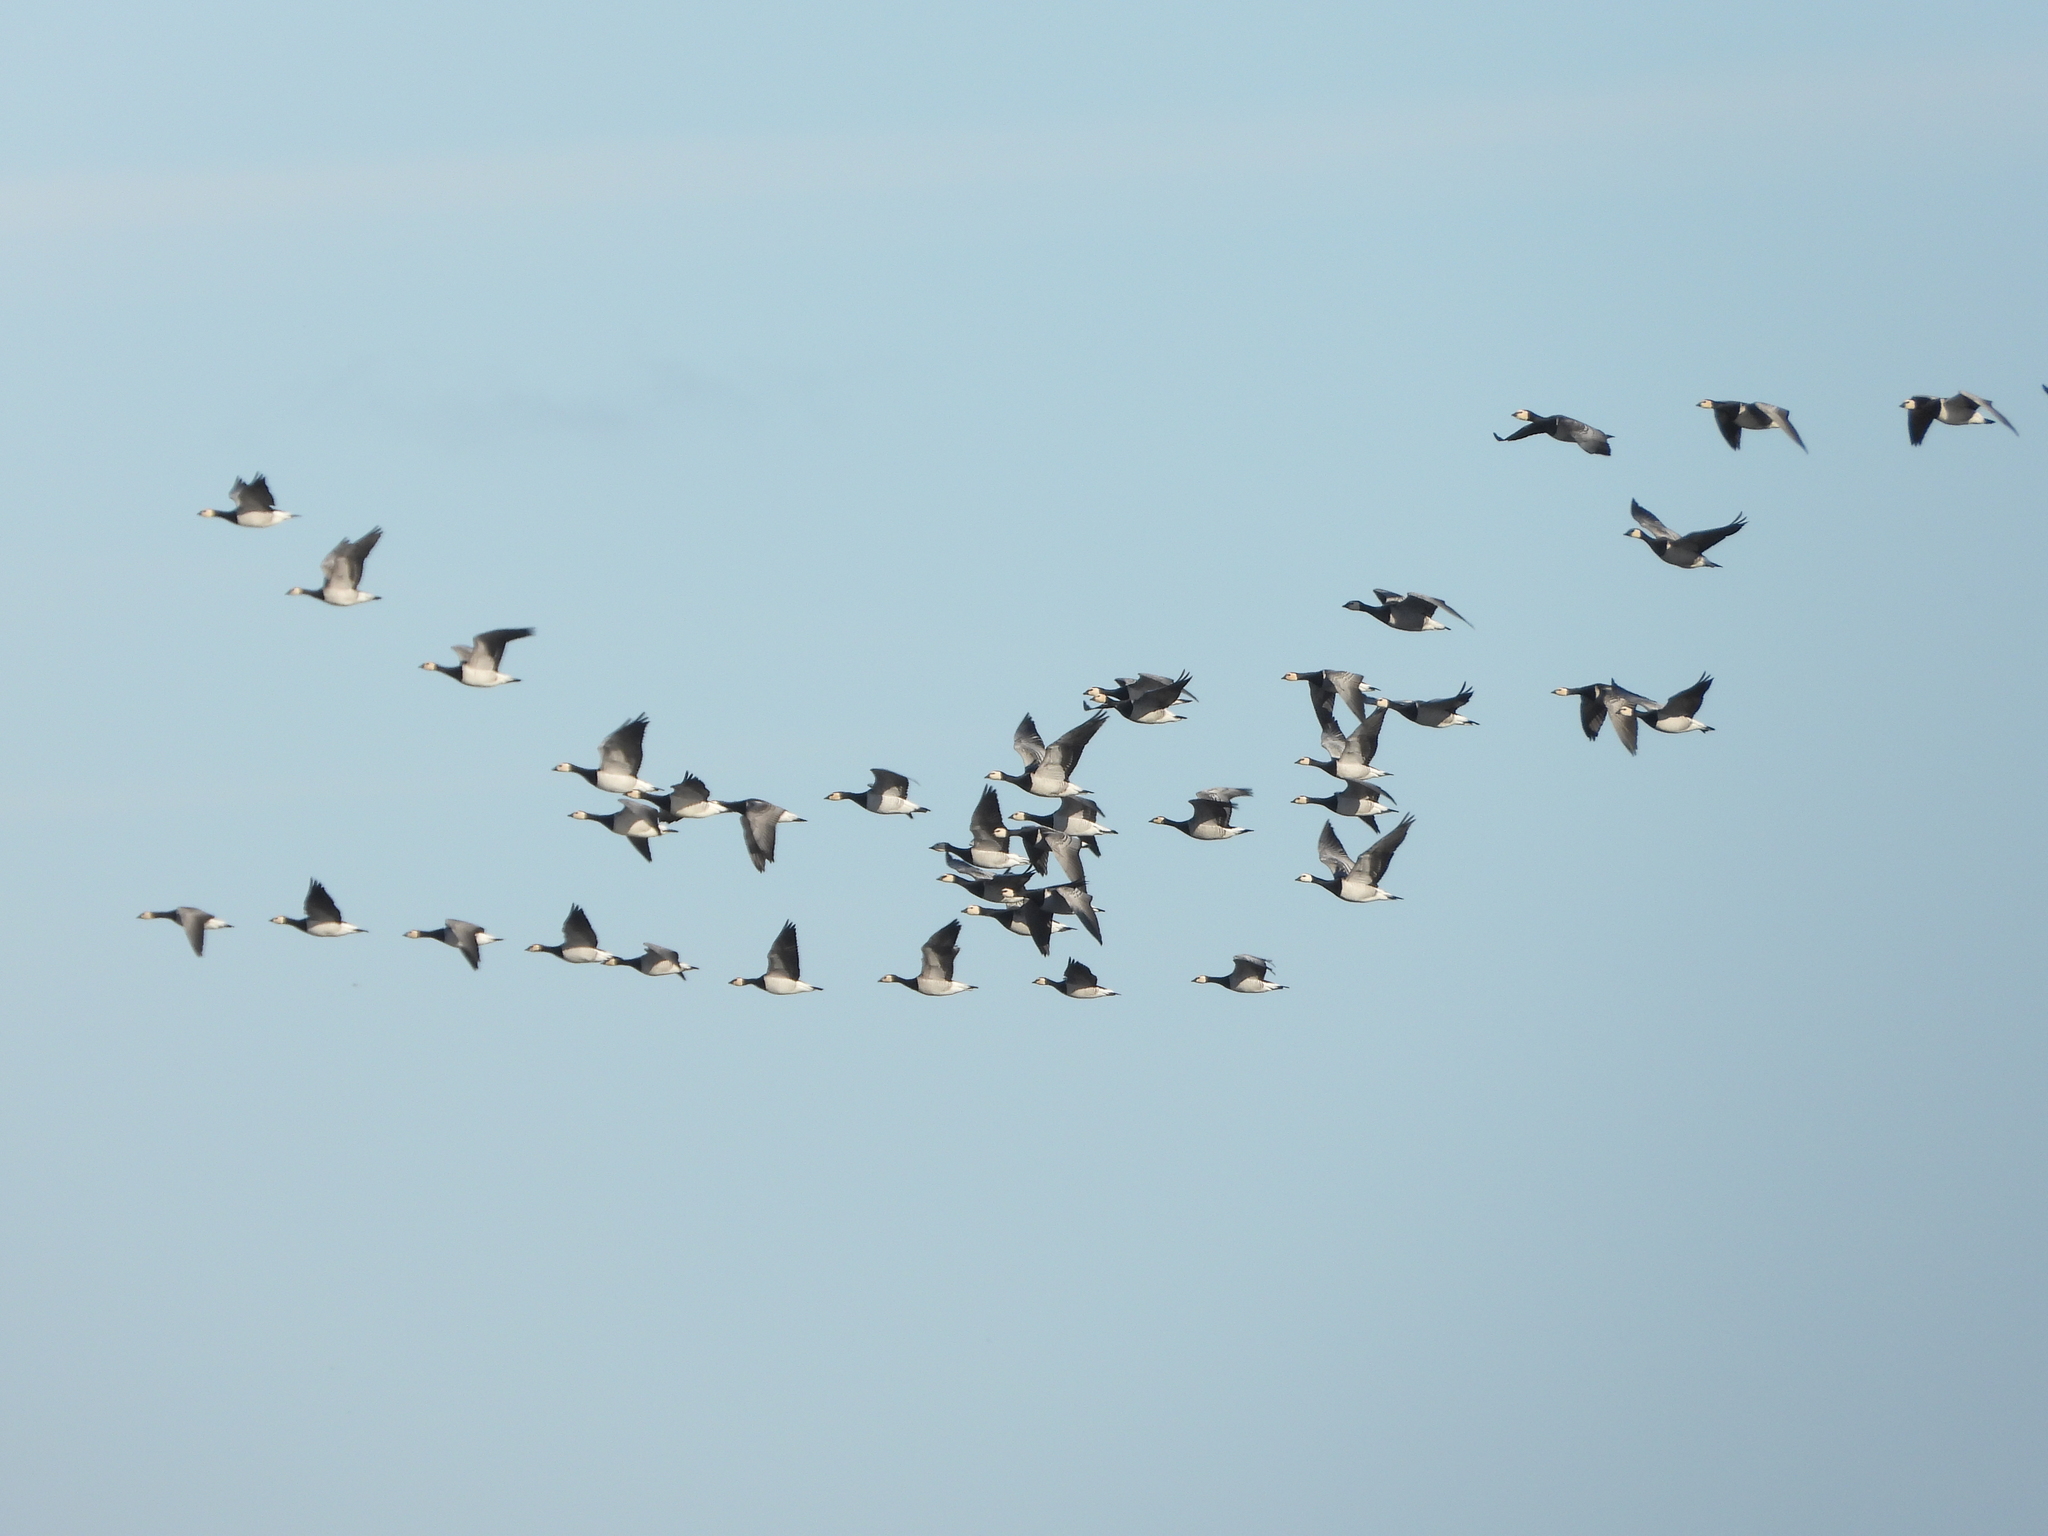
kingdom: Animalia
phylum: Chordata
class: Aves
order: Anseriformes
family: Anatidae
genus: Branta
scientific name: Branta leucopsis
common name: Barnacle goose
